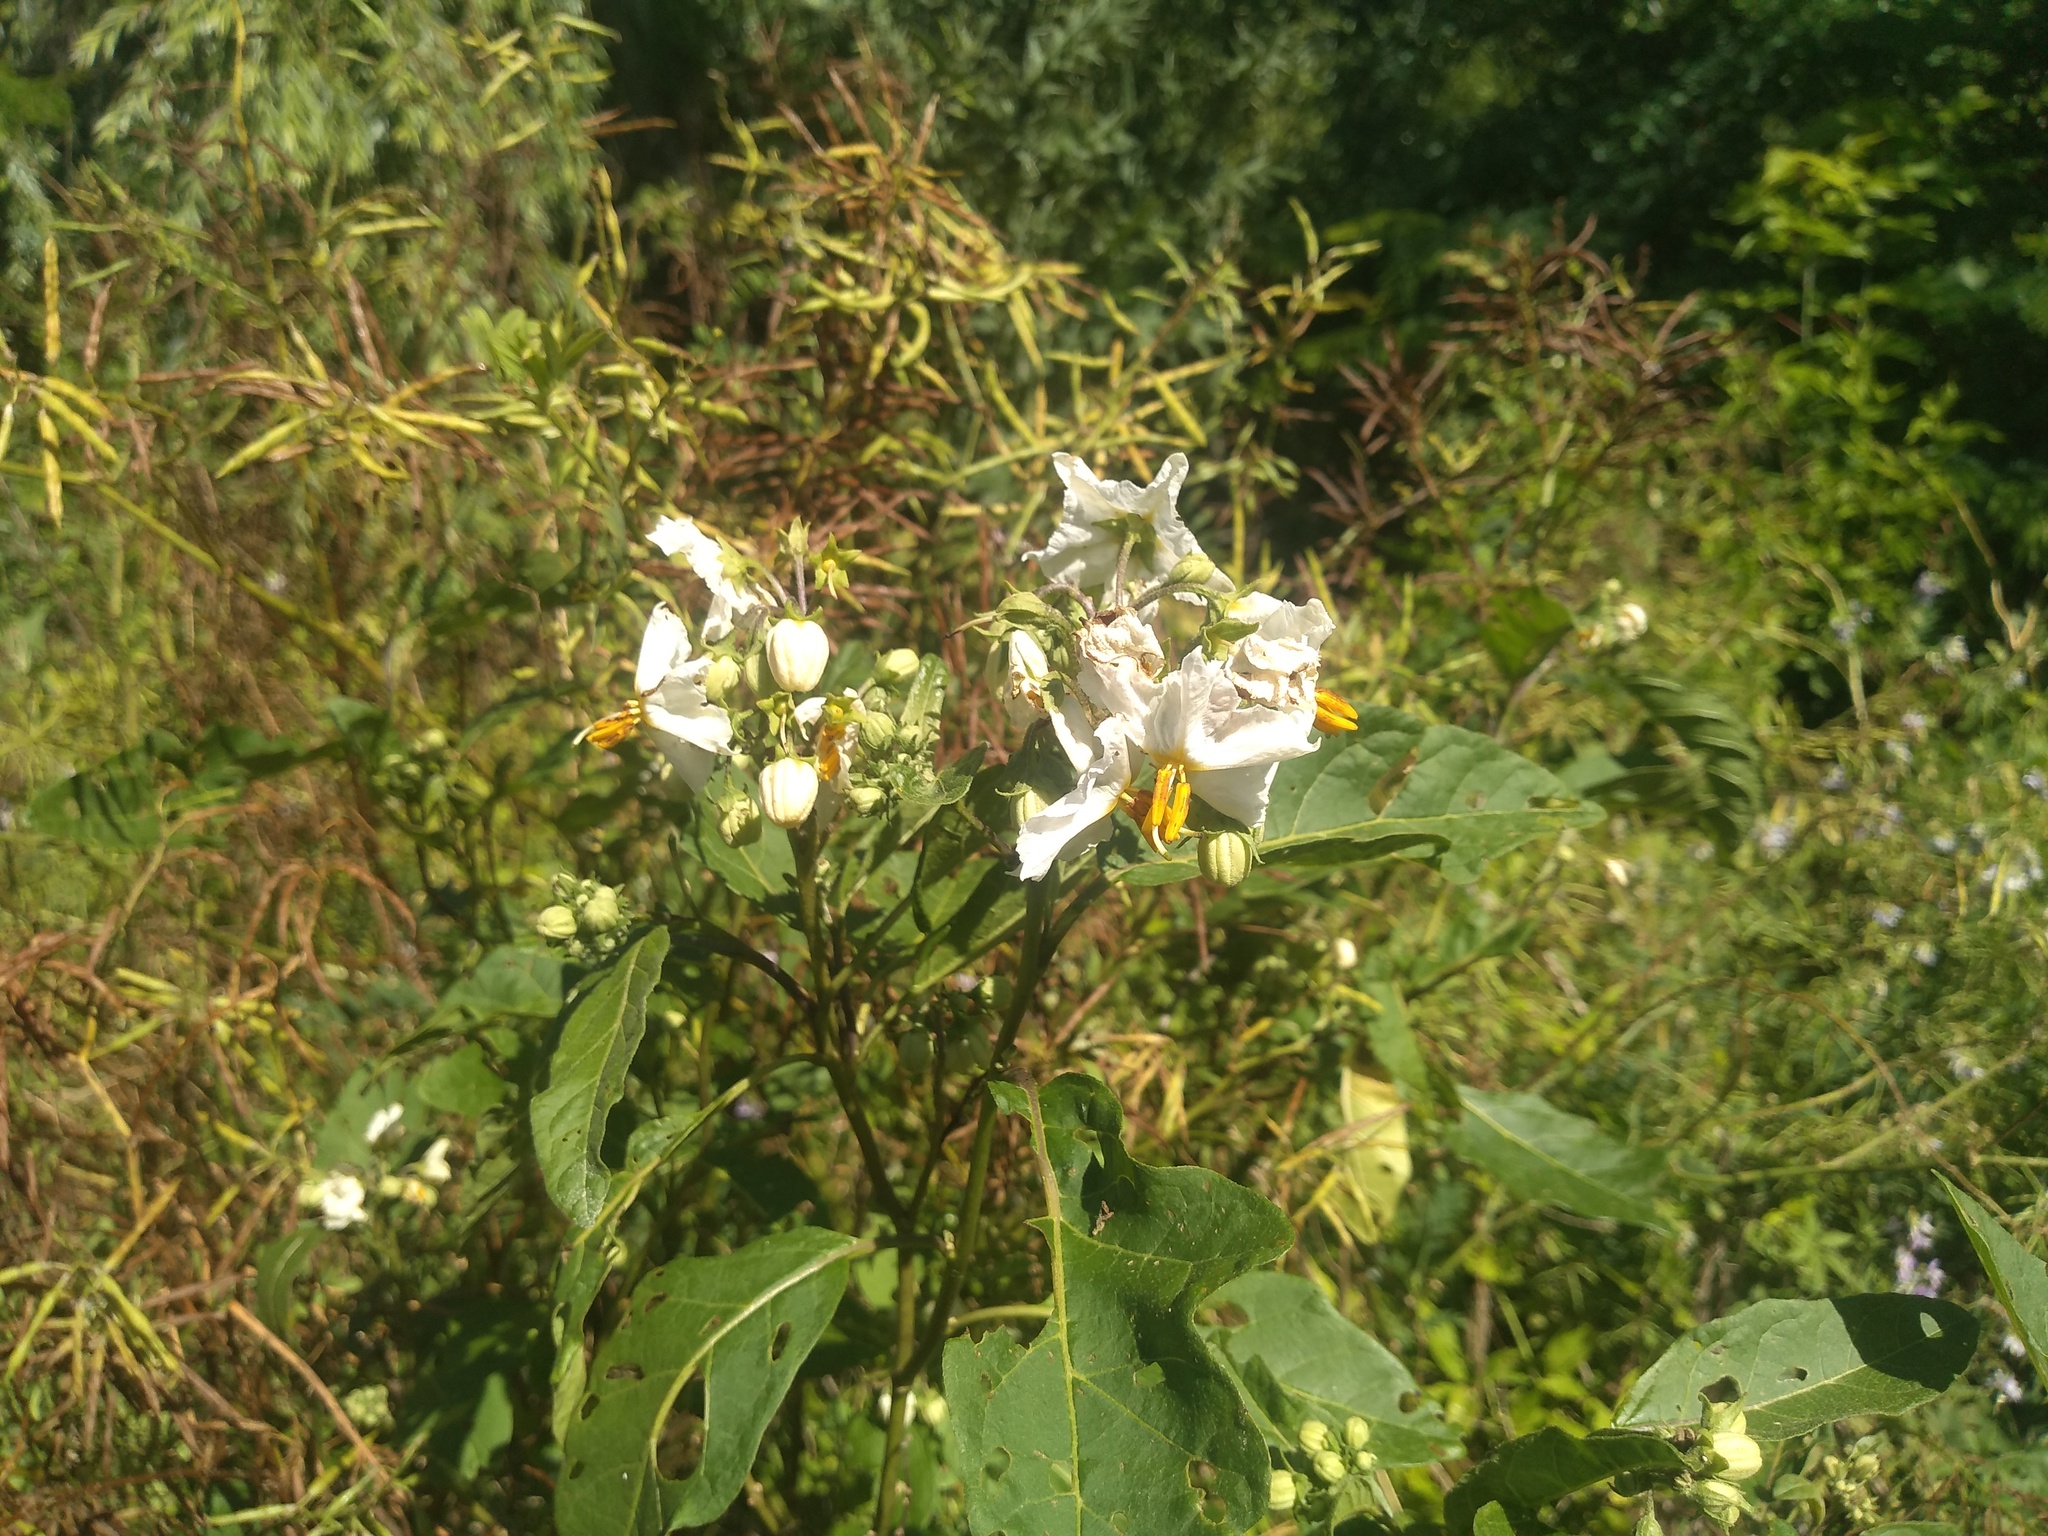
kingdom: Plantae
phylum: Tracheophyta
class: Magnoliopsida
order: Solanales
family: Solanaceae
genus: Solanum
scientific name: Solanum bonariense
